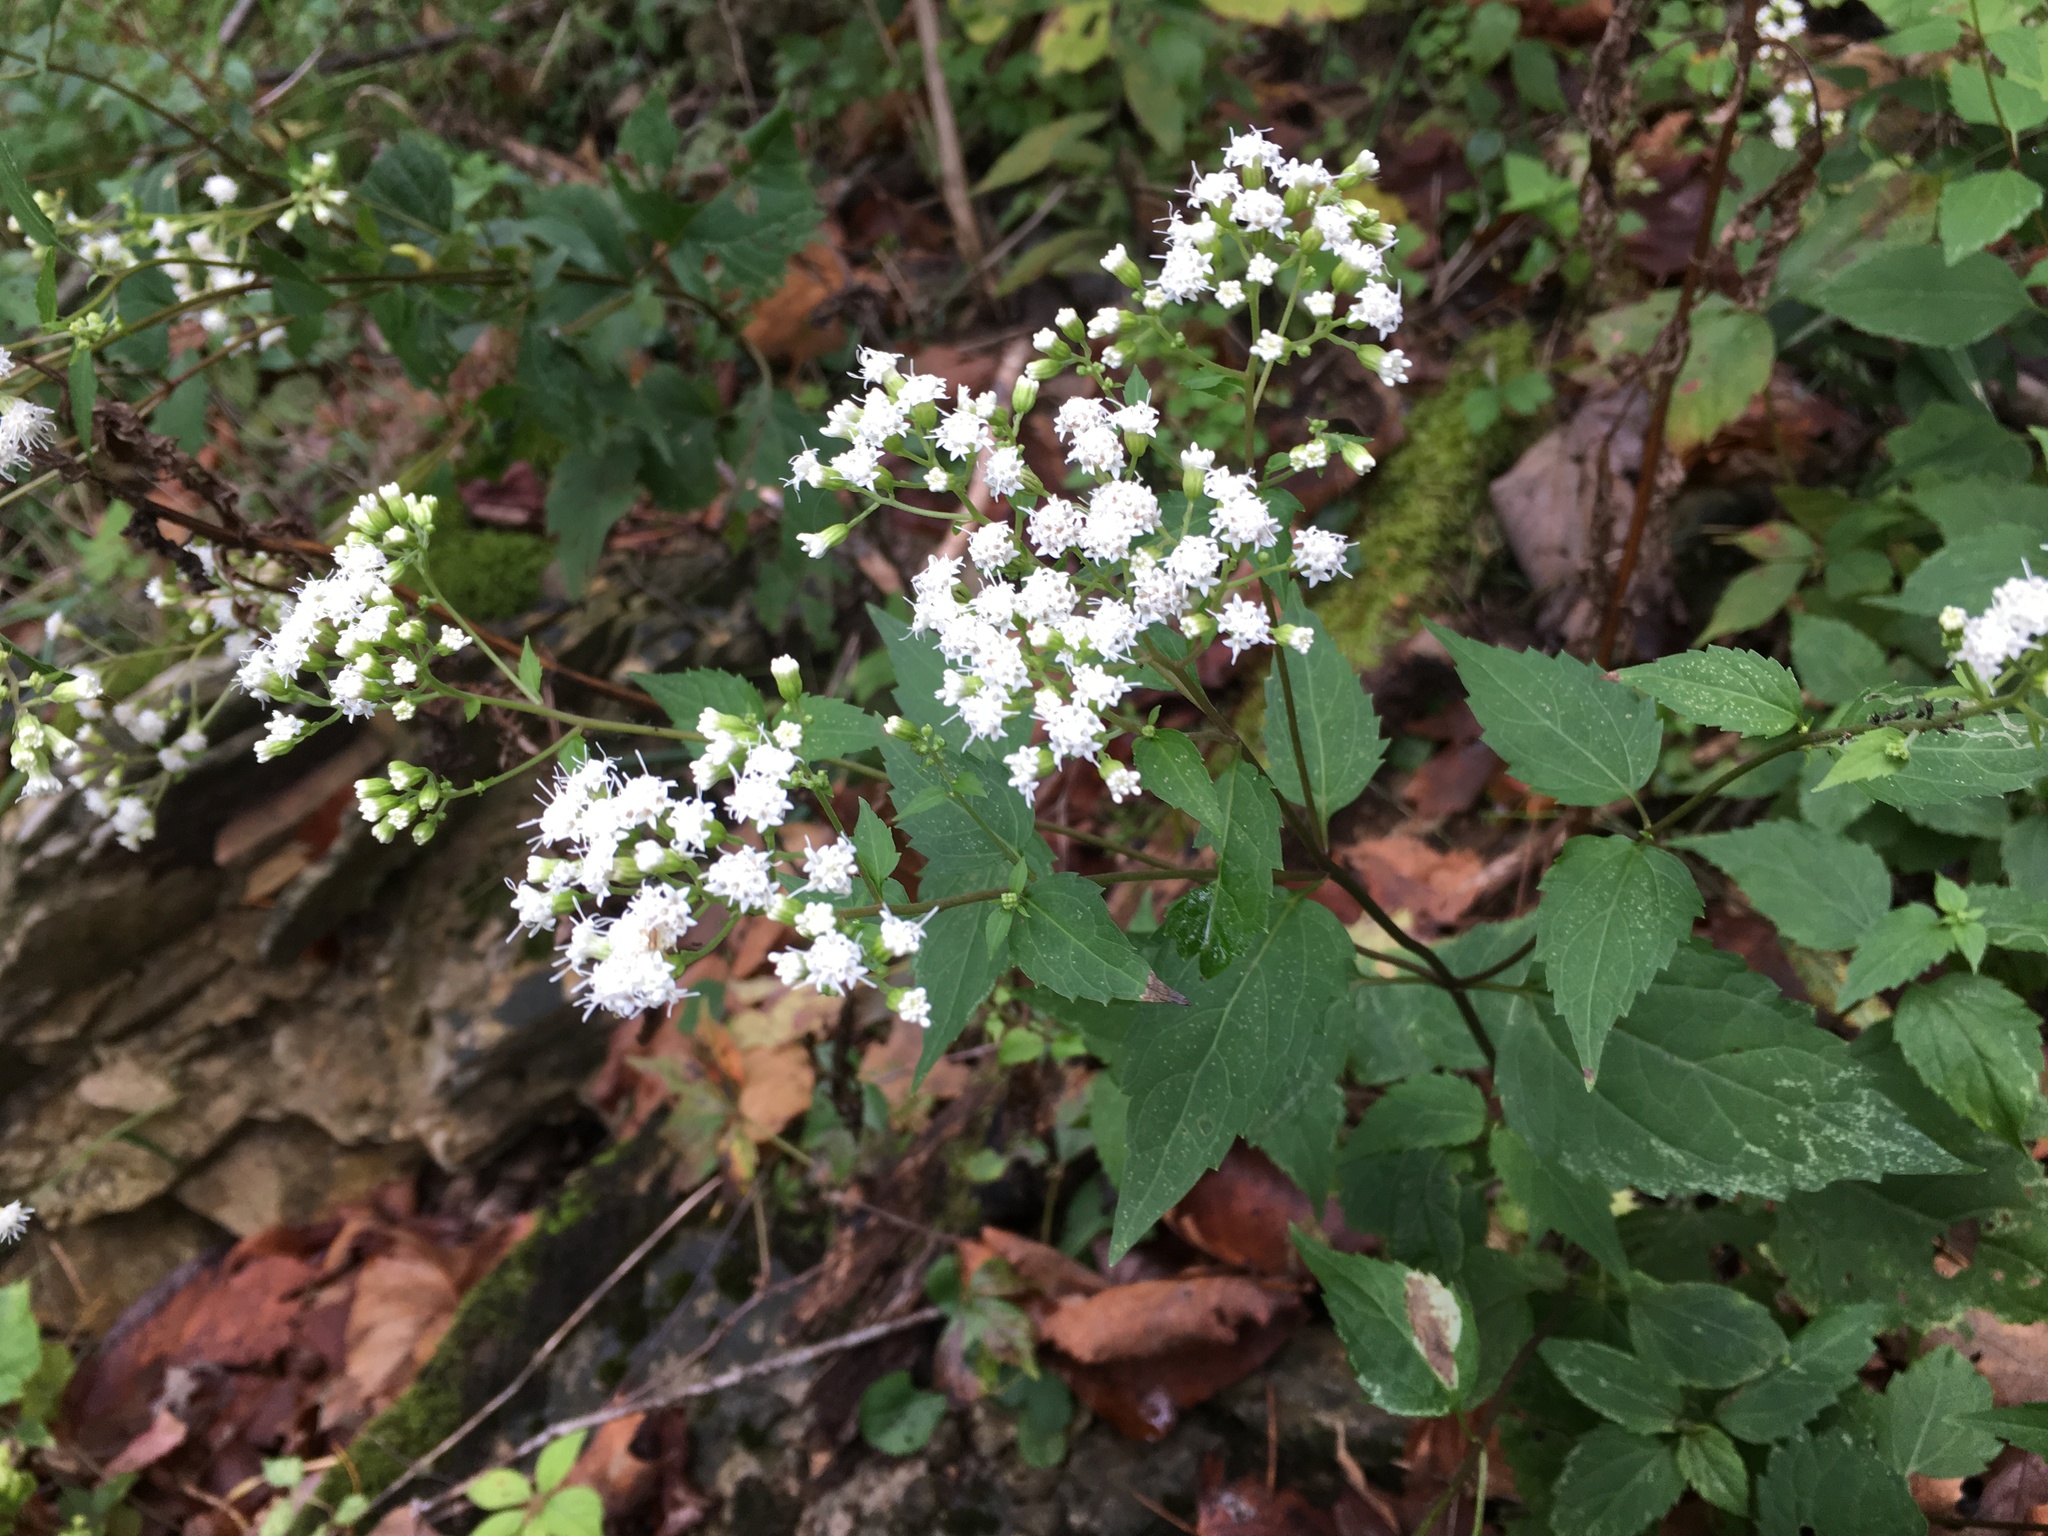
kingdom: Plantae
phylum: Tracheophyta
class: Magnoliopsida
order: Asterales
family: Asteraceae
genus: Ageratina
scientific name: Ageratina altissima
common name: White snakeroot
